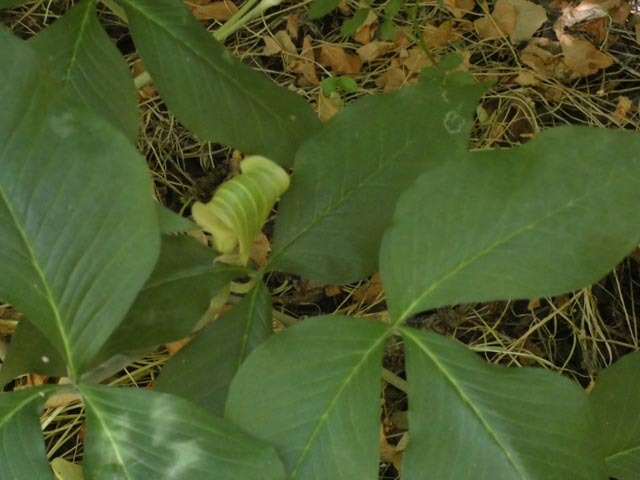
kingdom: Plantae
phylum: Tracheophyta
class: Liliopsida
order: Alismatales
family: Araceae
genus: Arisaema
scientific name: Arisaema triphyllum
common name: Jack-in-the-pulpit
